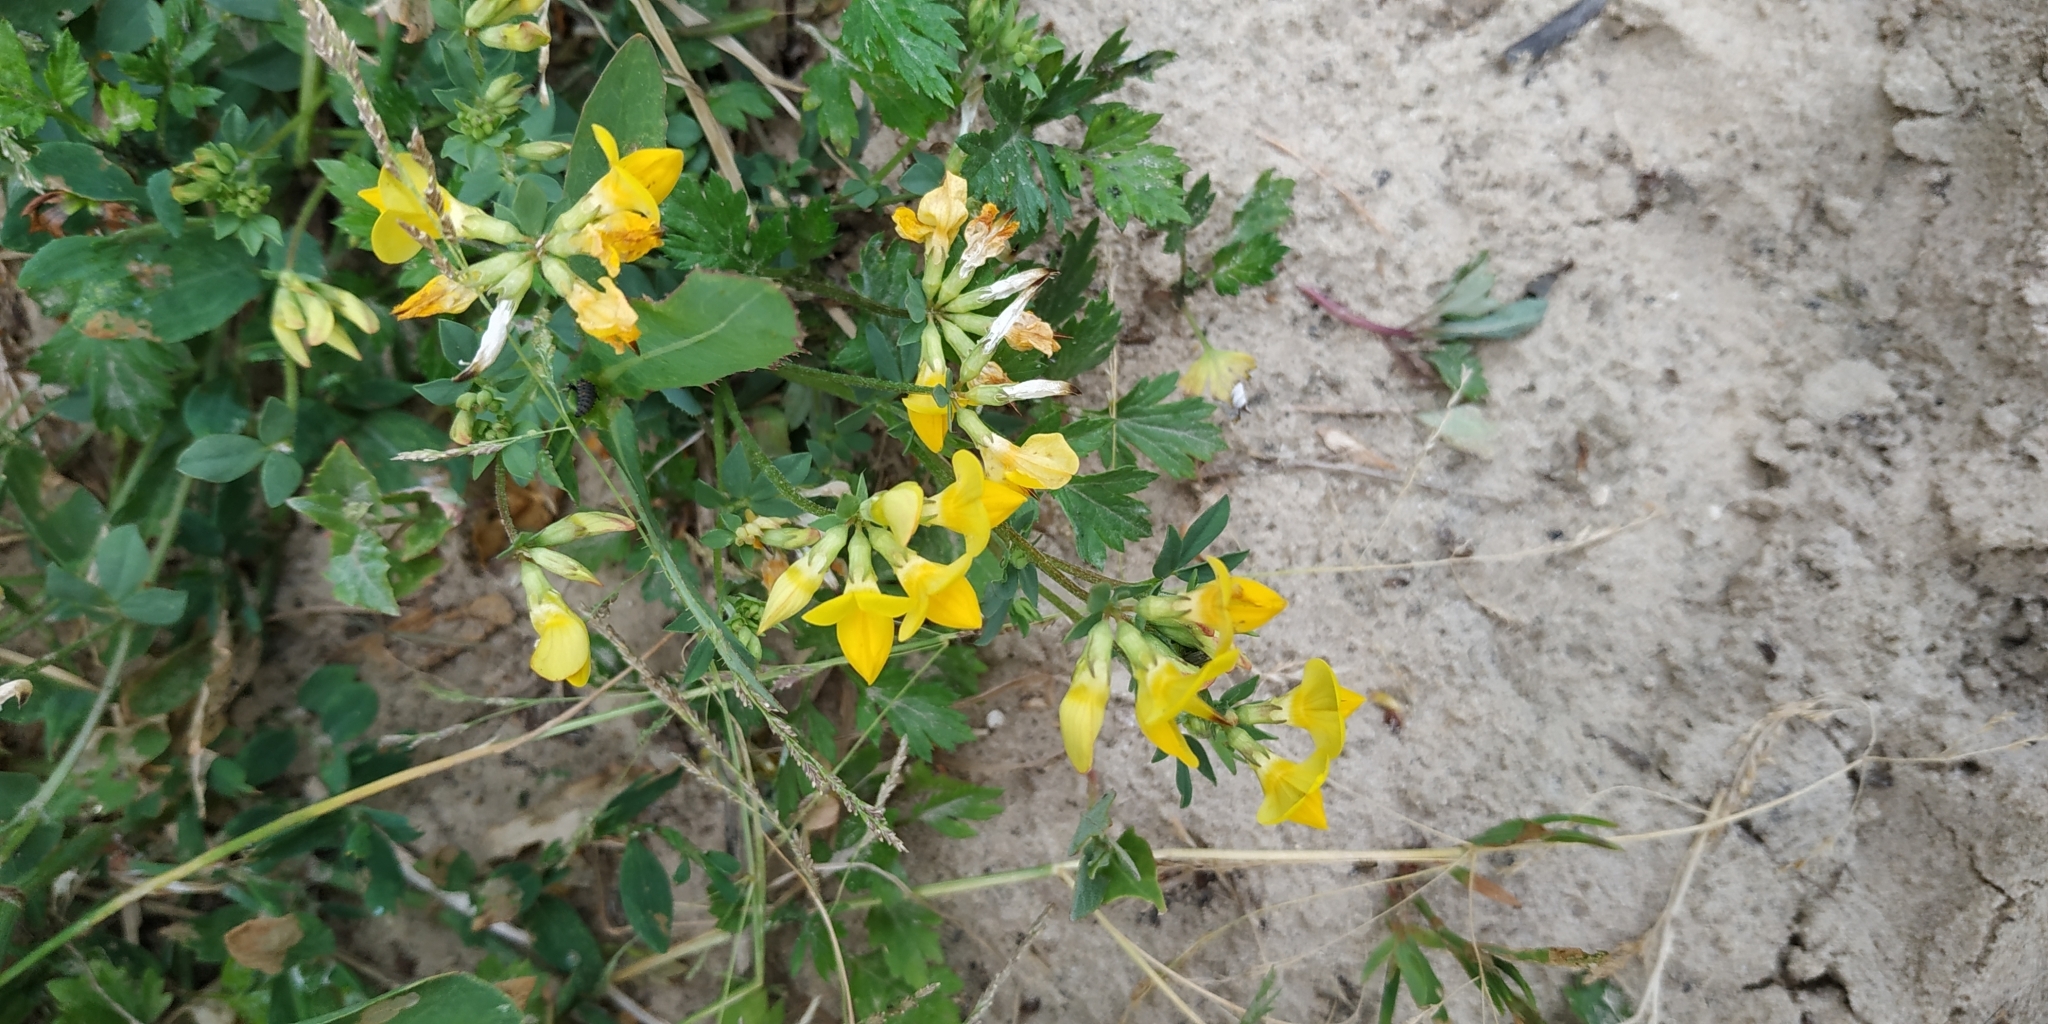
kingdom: Plantae
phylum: Tracheophyta
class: Magnoliopsida
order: Fabales
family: Fabaceae
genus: Lotus
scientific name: Lotus ucrainicus
